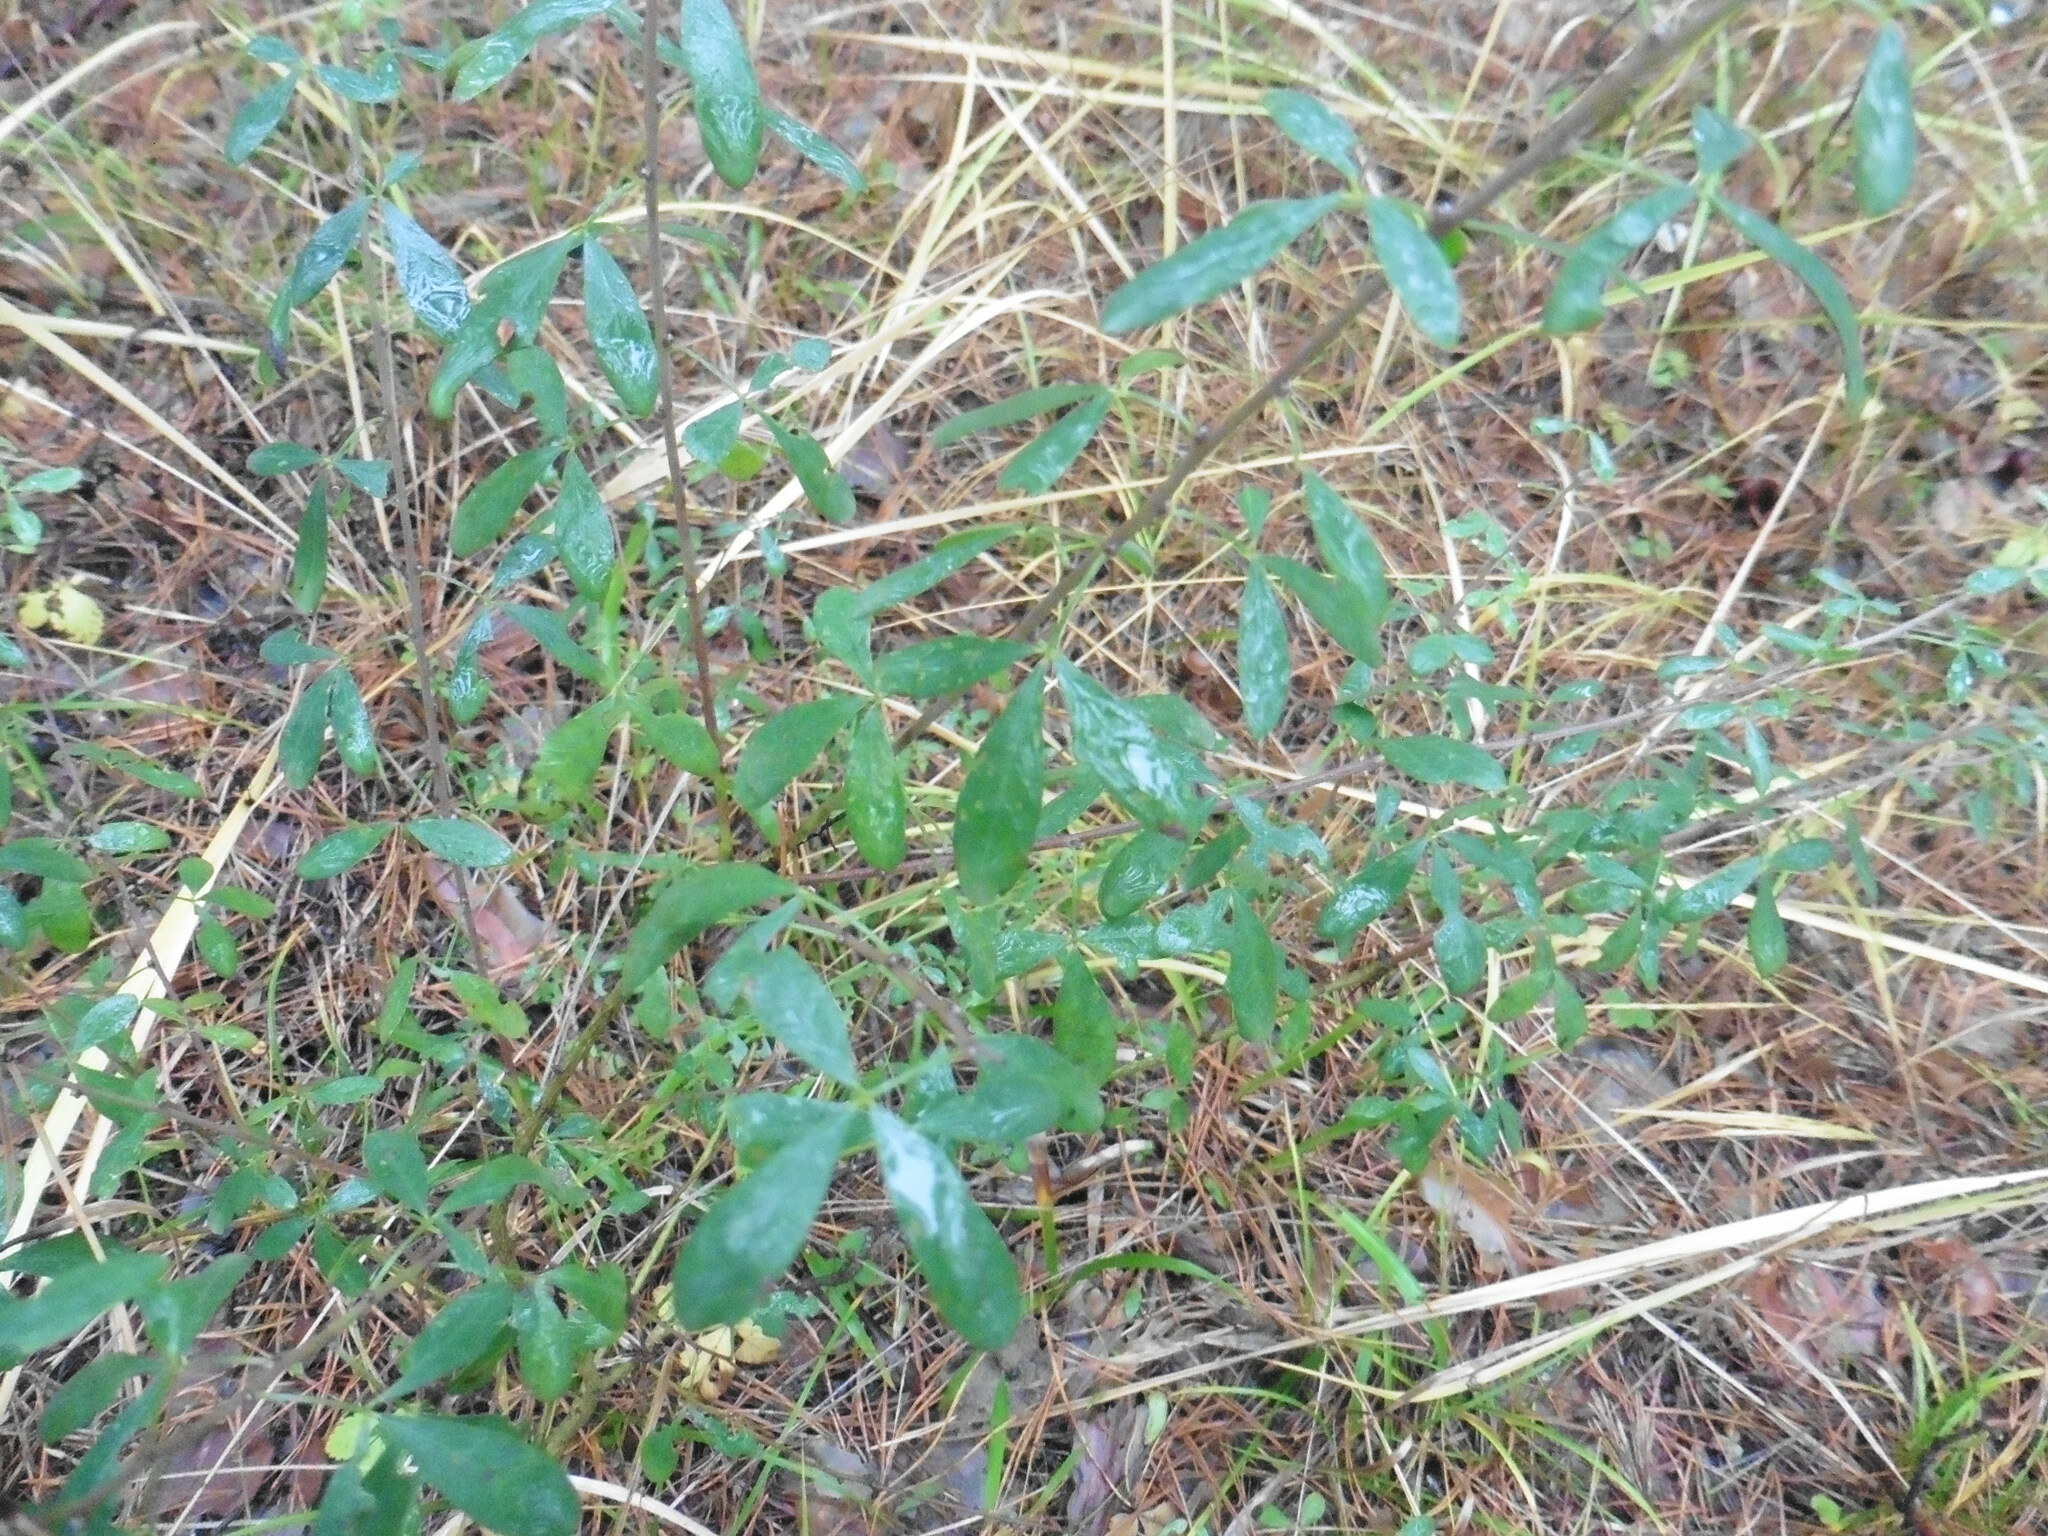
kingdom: Plantae
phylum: Tracheophyta
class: Magnoliopsida
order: Fabales
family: Fabaceae
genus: Chamaecytisus
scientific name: Chamaecytisus ruthenicus
